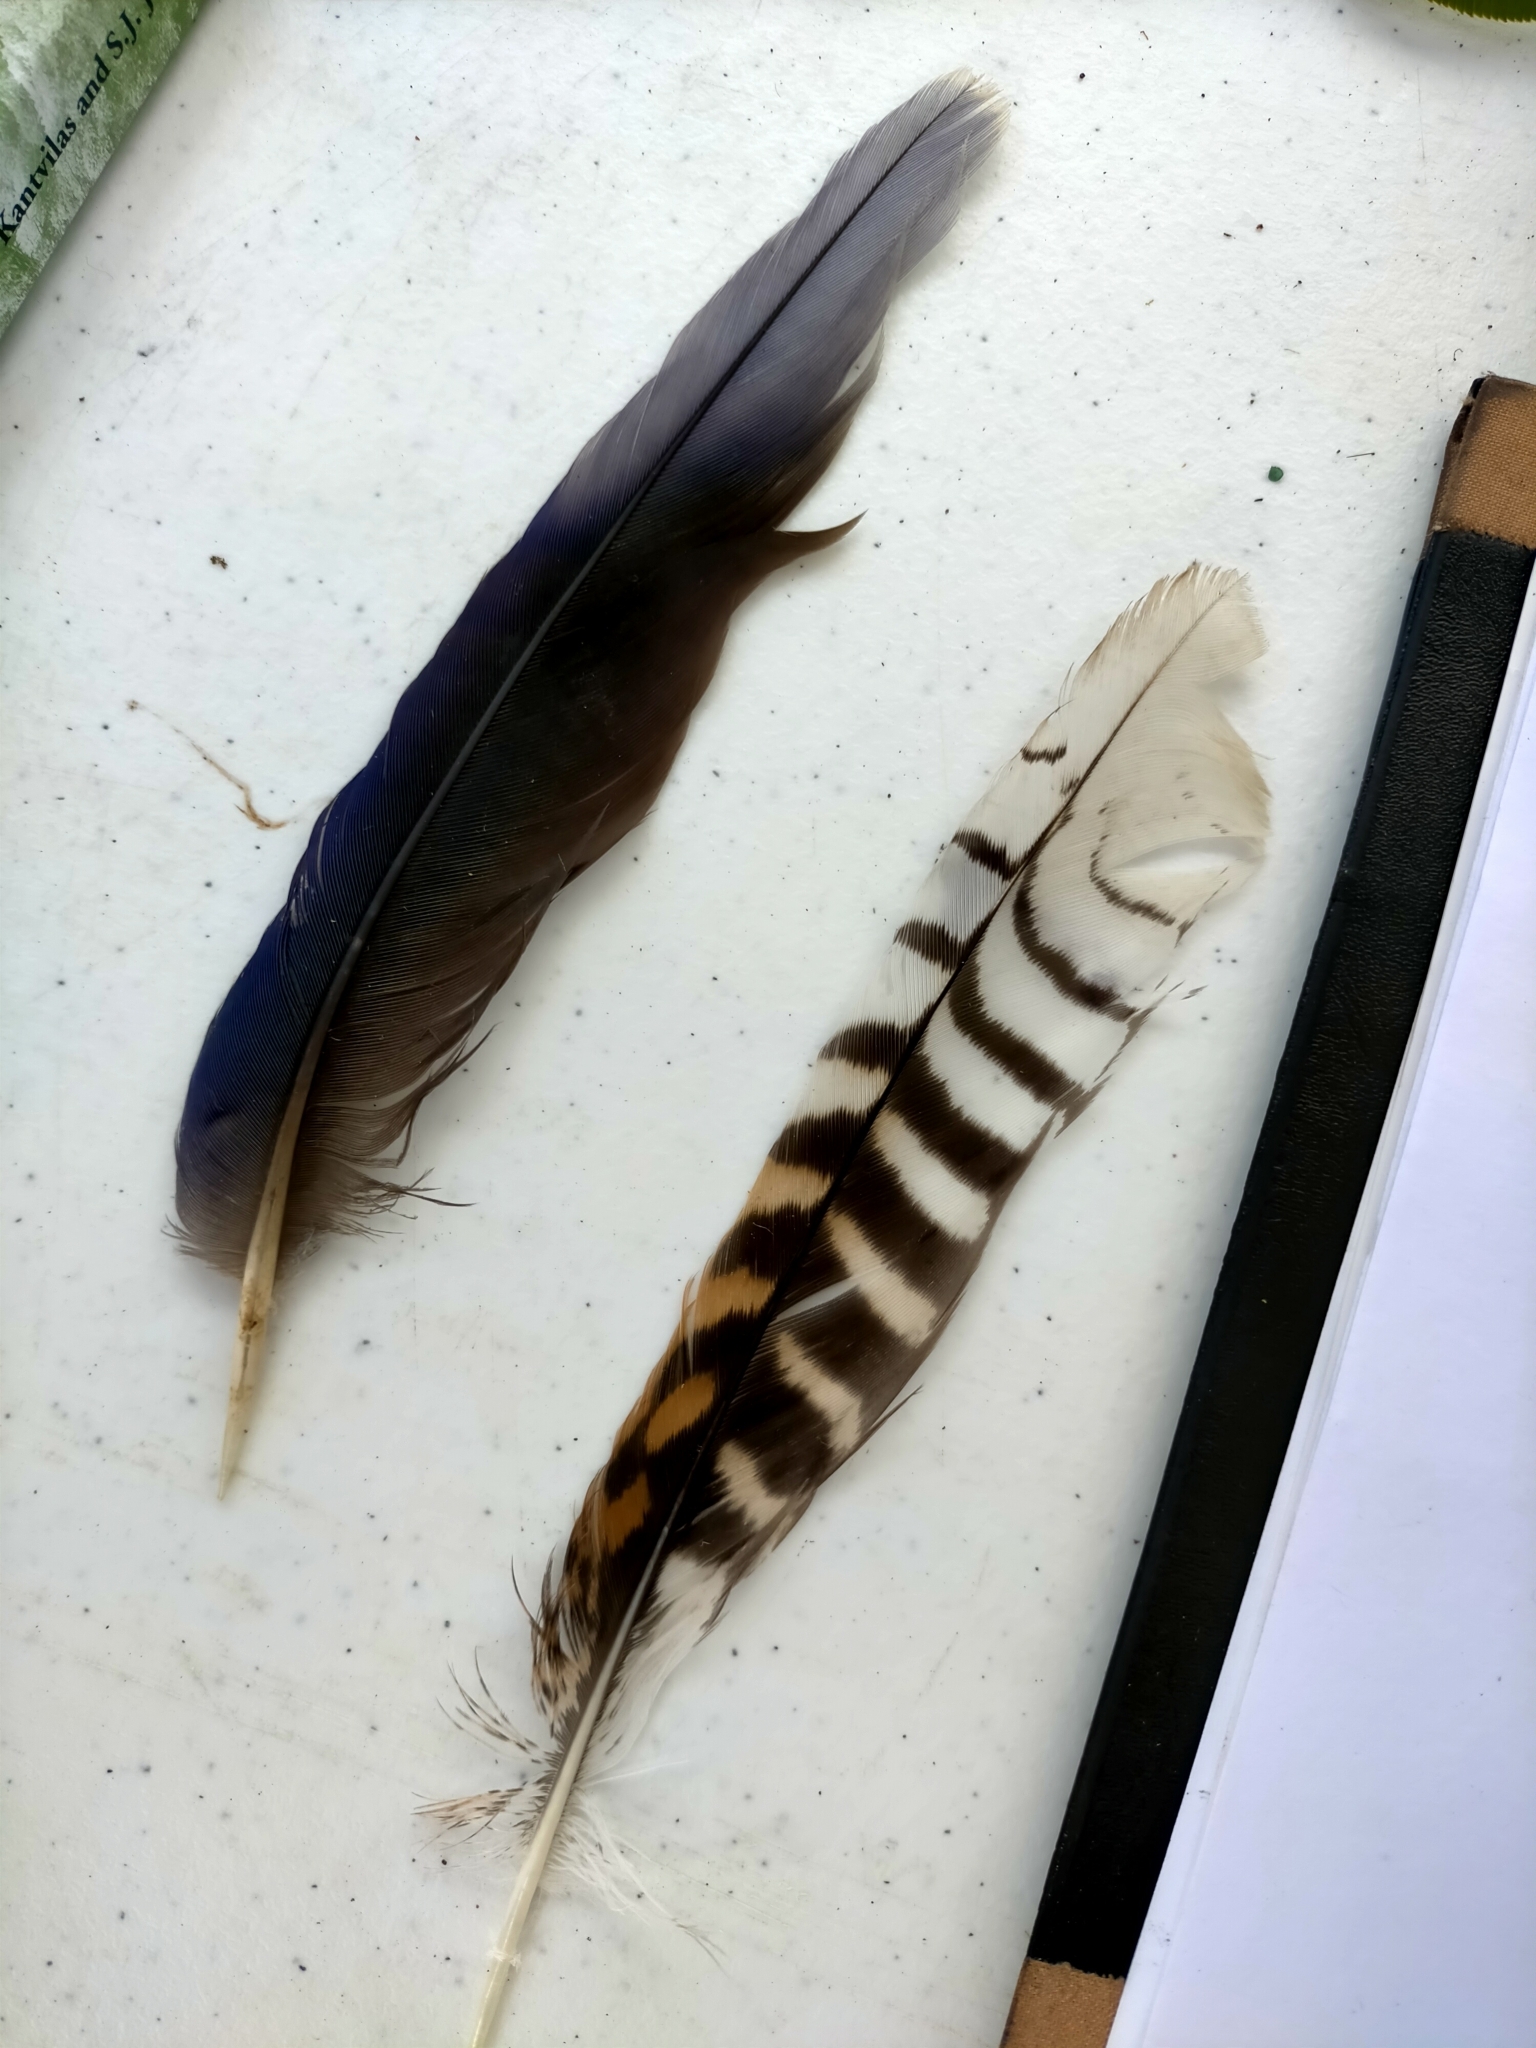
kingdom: Animalia
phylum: Chordata
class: Aves
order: Coraciiformes
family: Alcedinidae
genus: Dacelo
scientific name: Dacelo novaeguineae
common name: Laughing kookaburra
